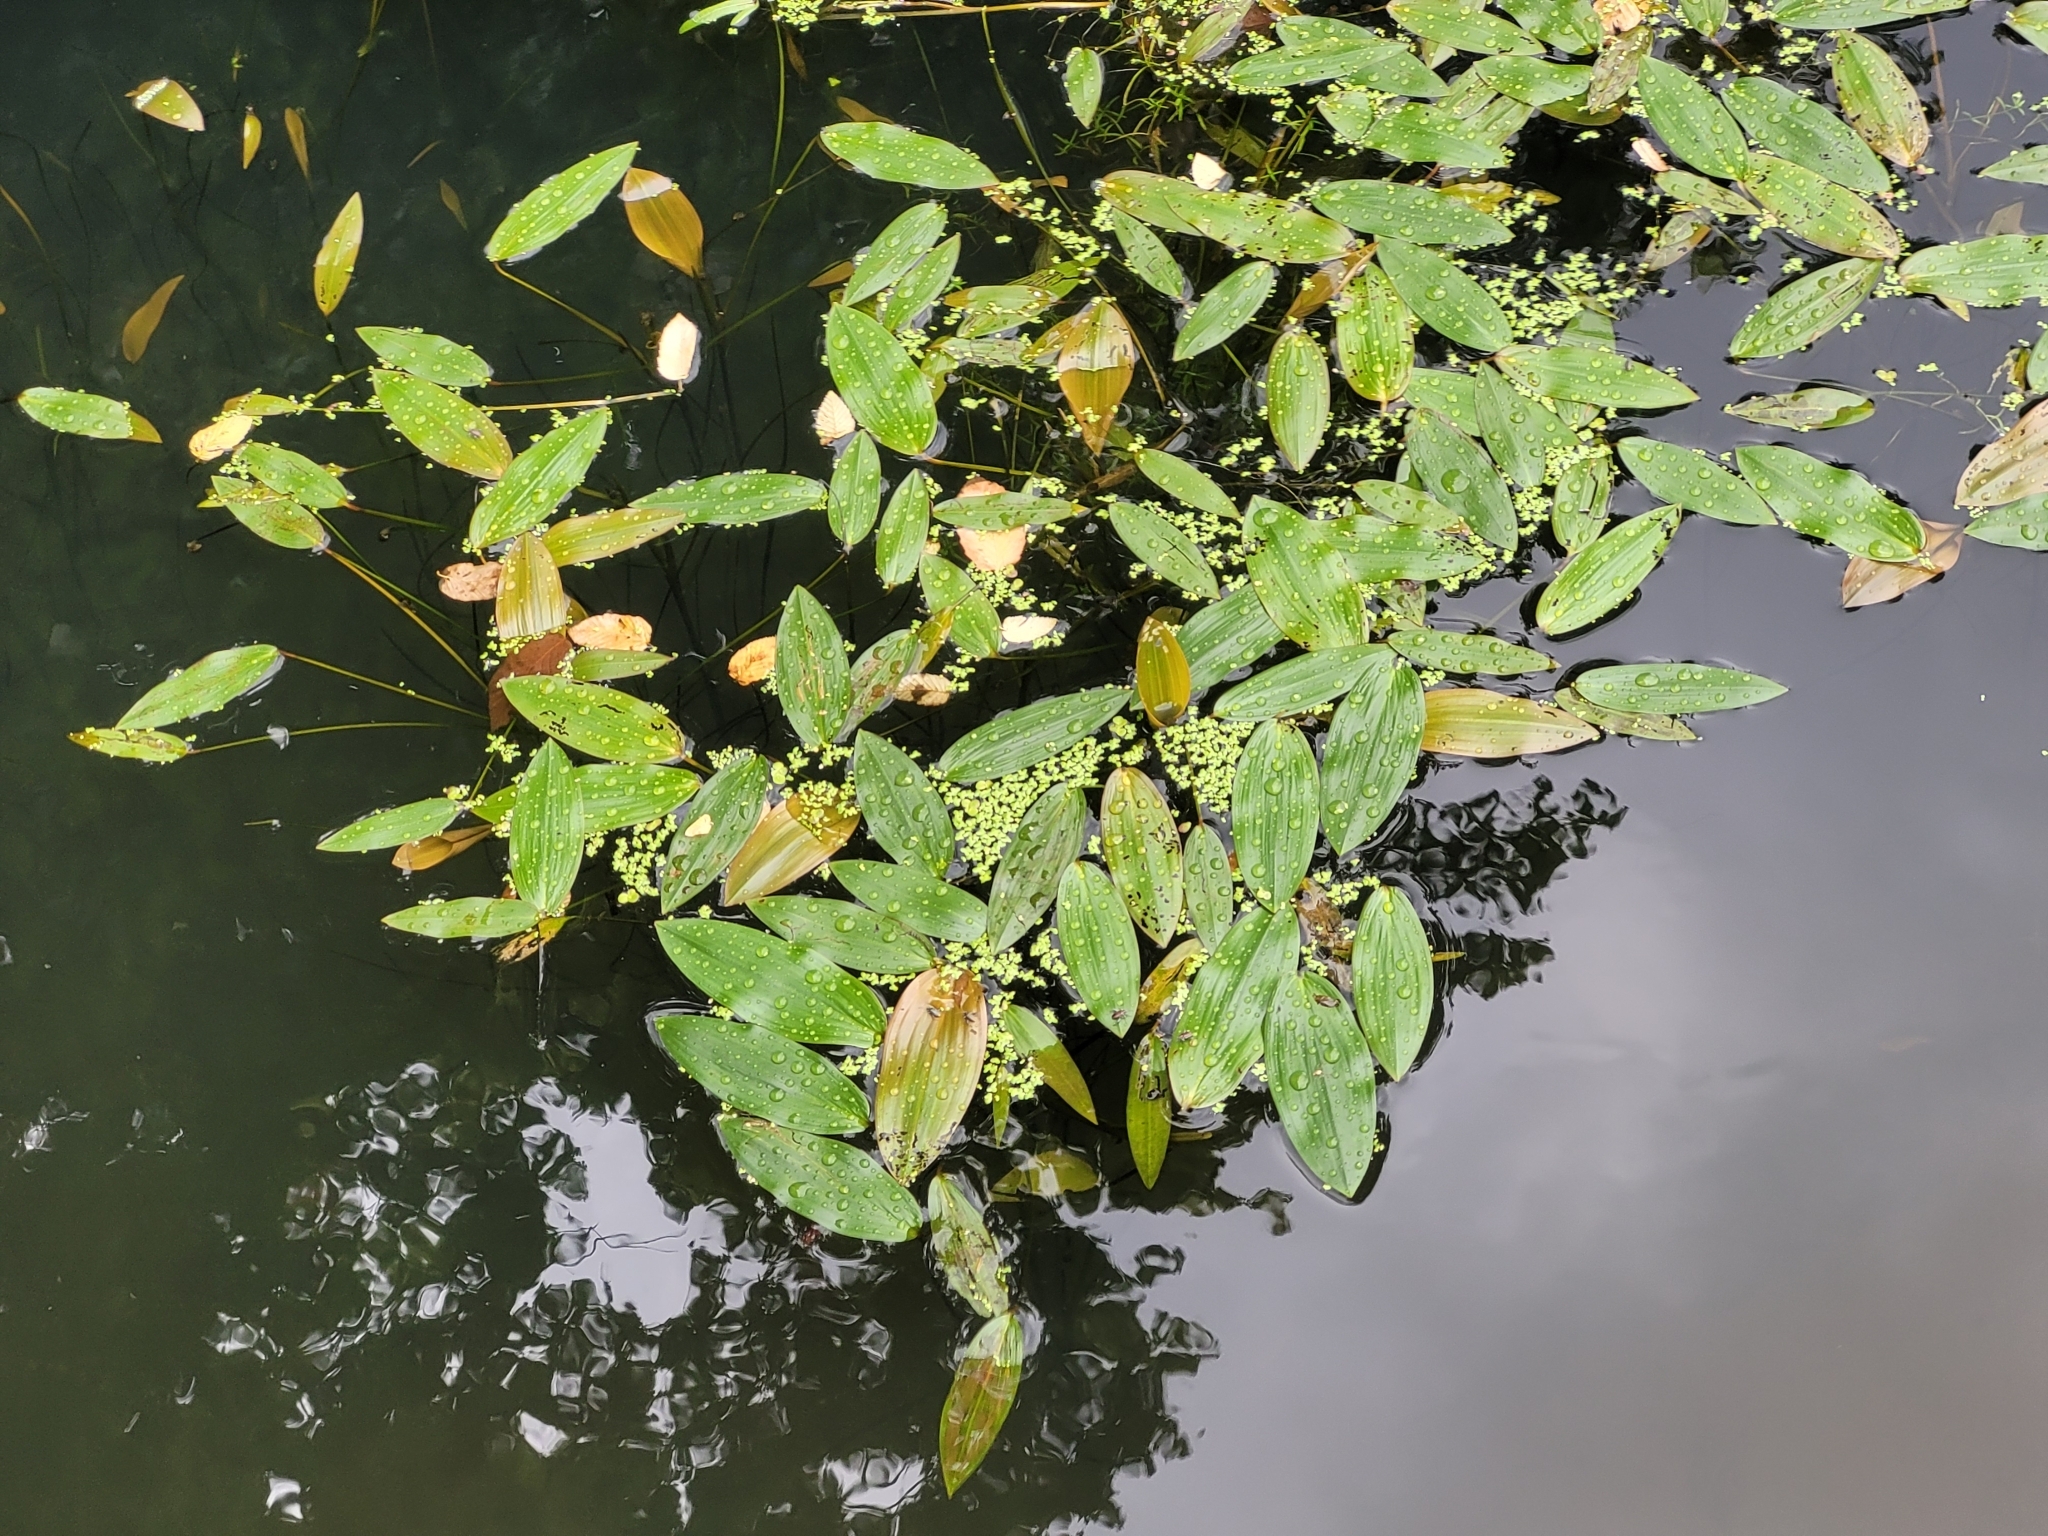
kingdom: Plantae
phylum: Tracheophyta
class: Liliopsida
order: Alismatales
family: Potamogetonaceae
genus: Potamogeton
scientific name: Potamogeton natans
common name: Broad-leaved pondweed
